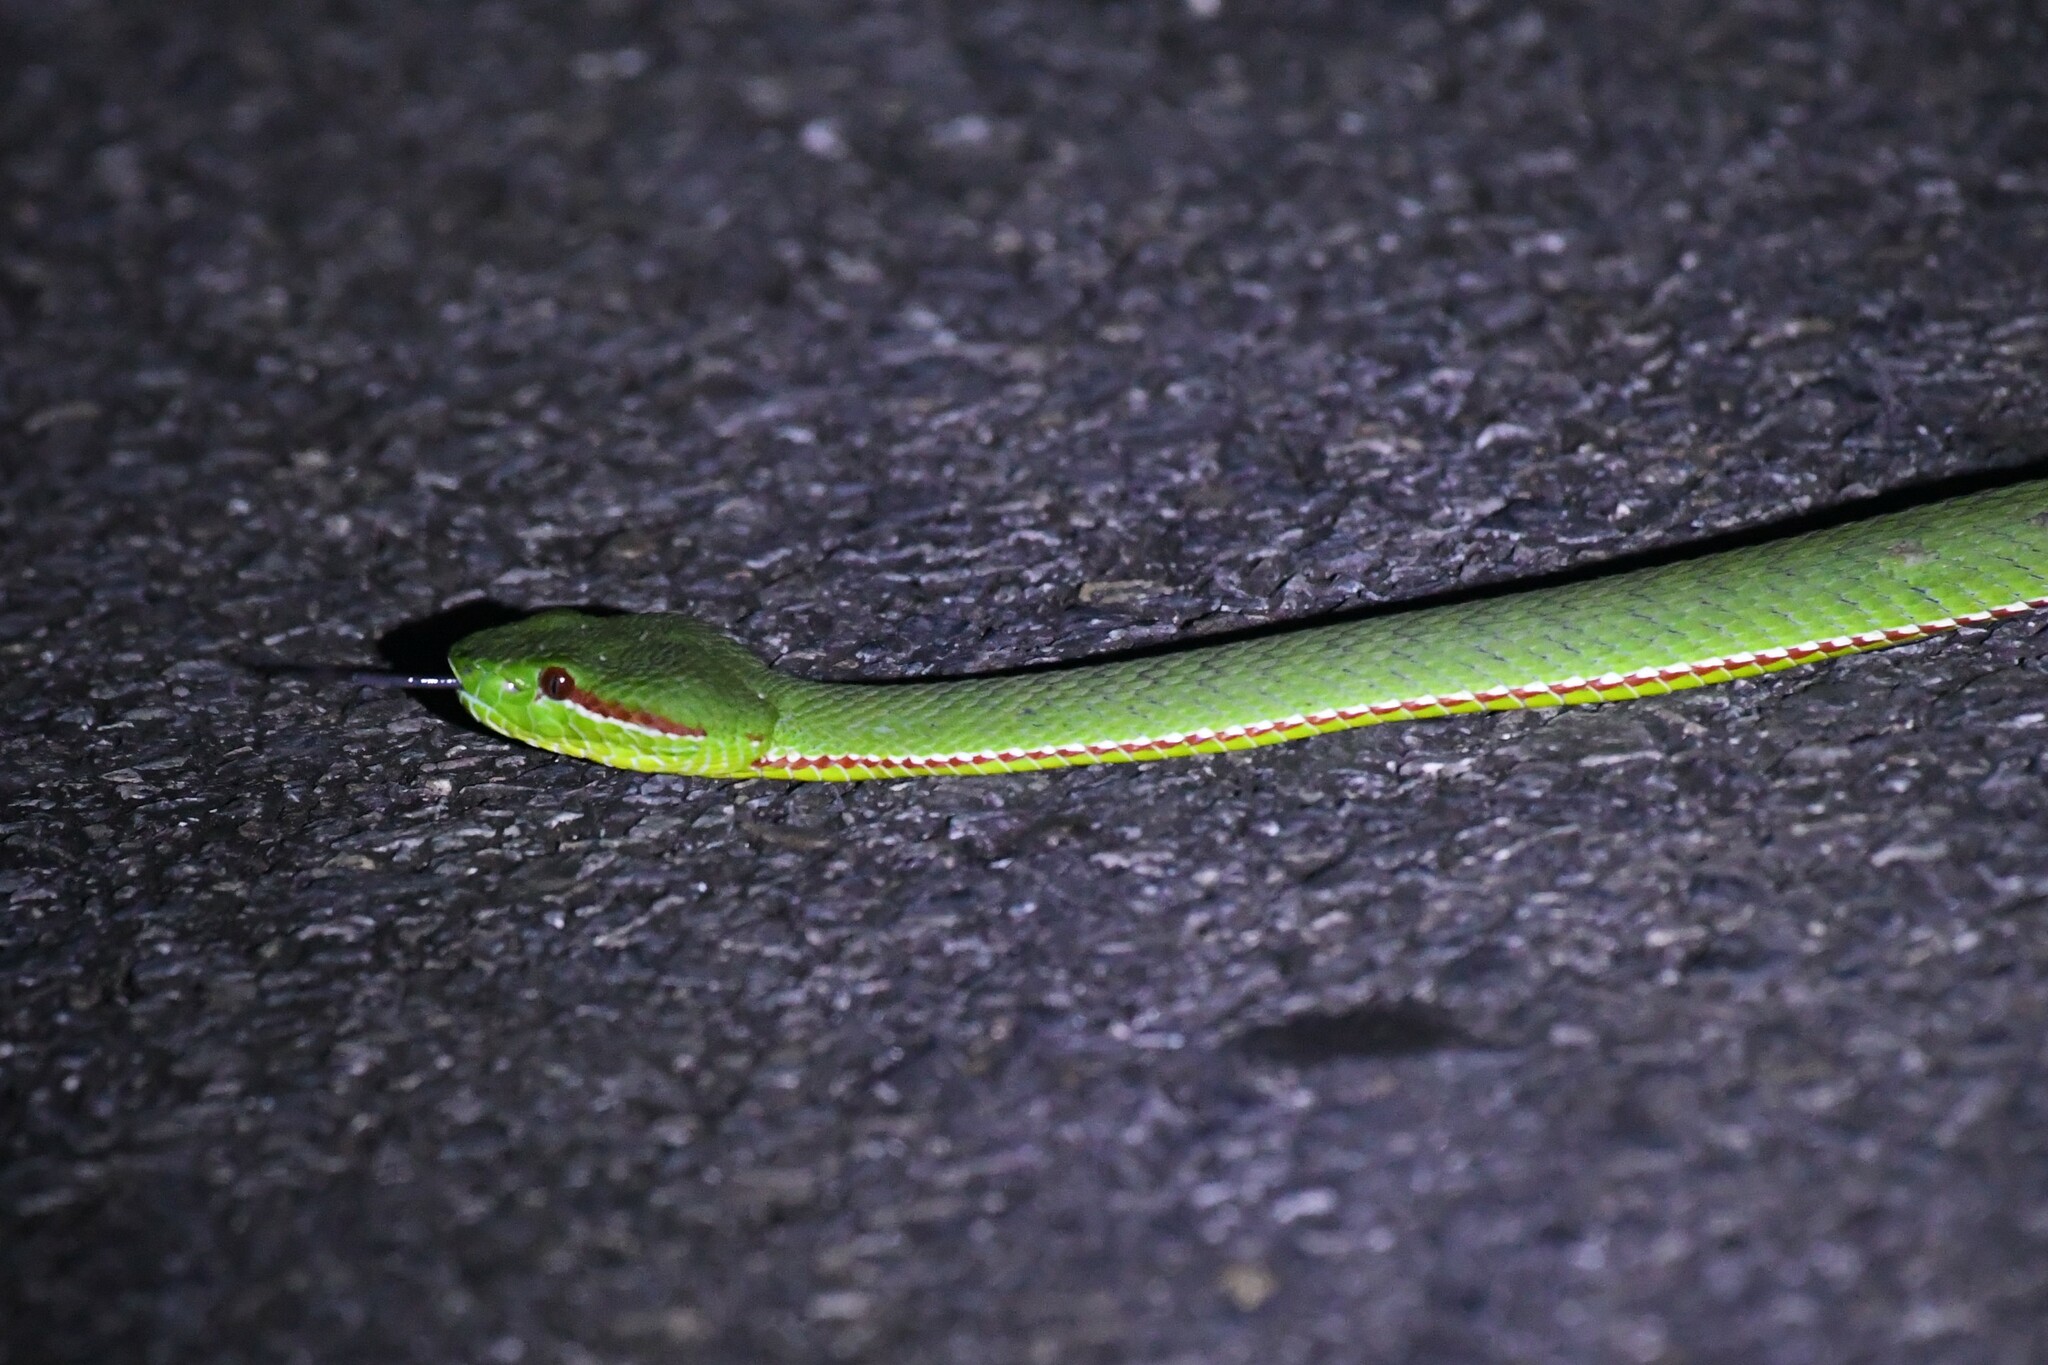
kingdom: Animalia
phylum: Chordata
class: Squamata
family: Viperidae
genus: Trimeresurus
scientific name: Trimeresurus popeiorum
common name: Pope's bamboo pit viper
